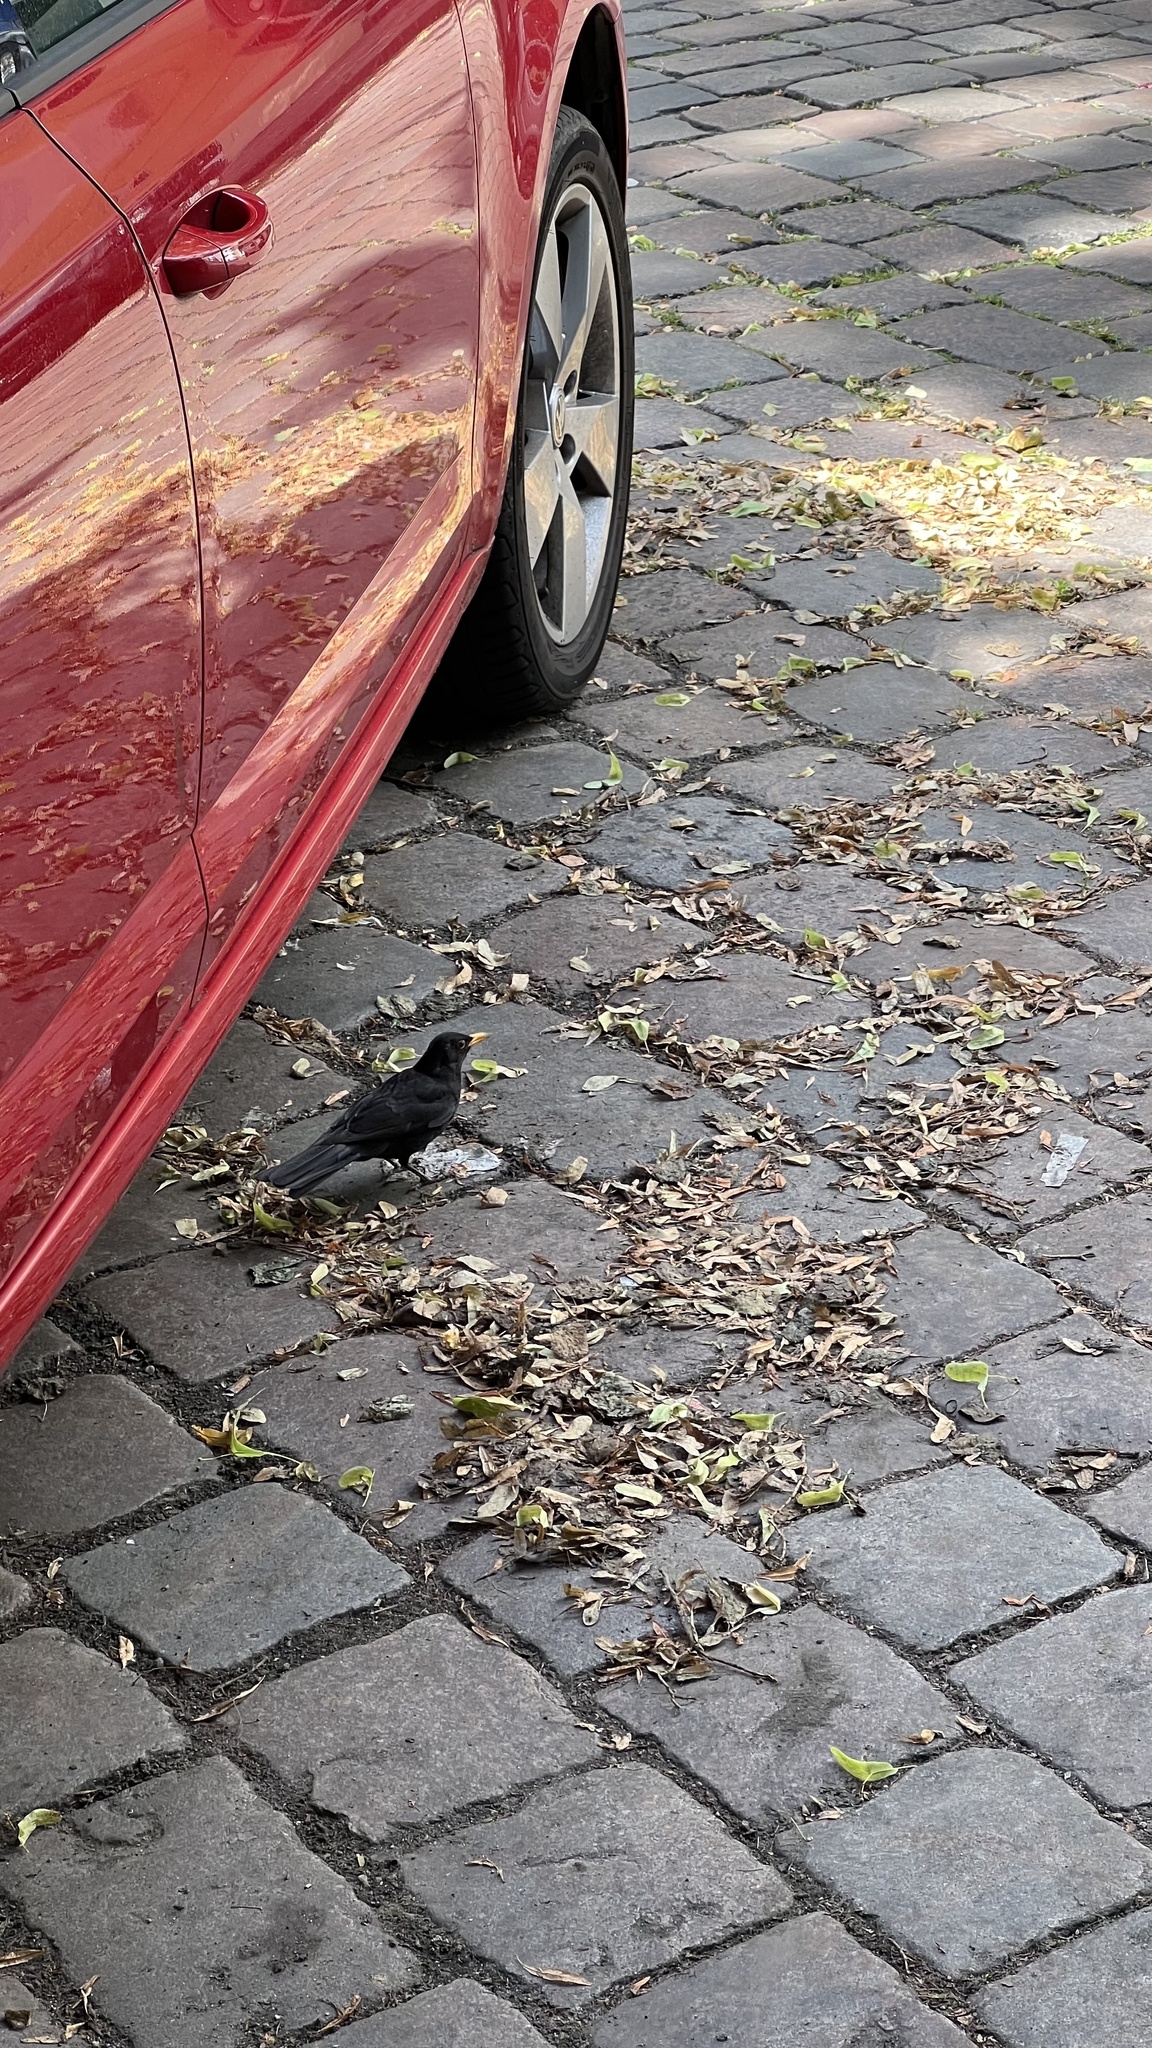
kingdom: Animalia
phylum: Chordata
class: Aves
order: Passeriformes
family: Turdidae
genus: Turdus
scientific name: Turdus merula
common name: Common blackbird
